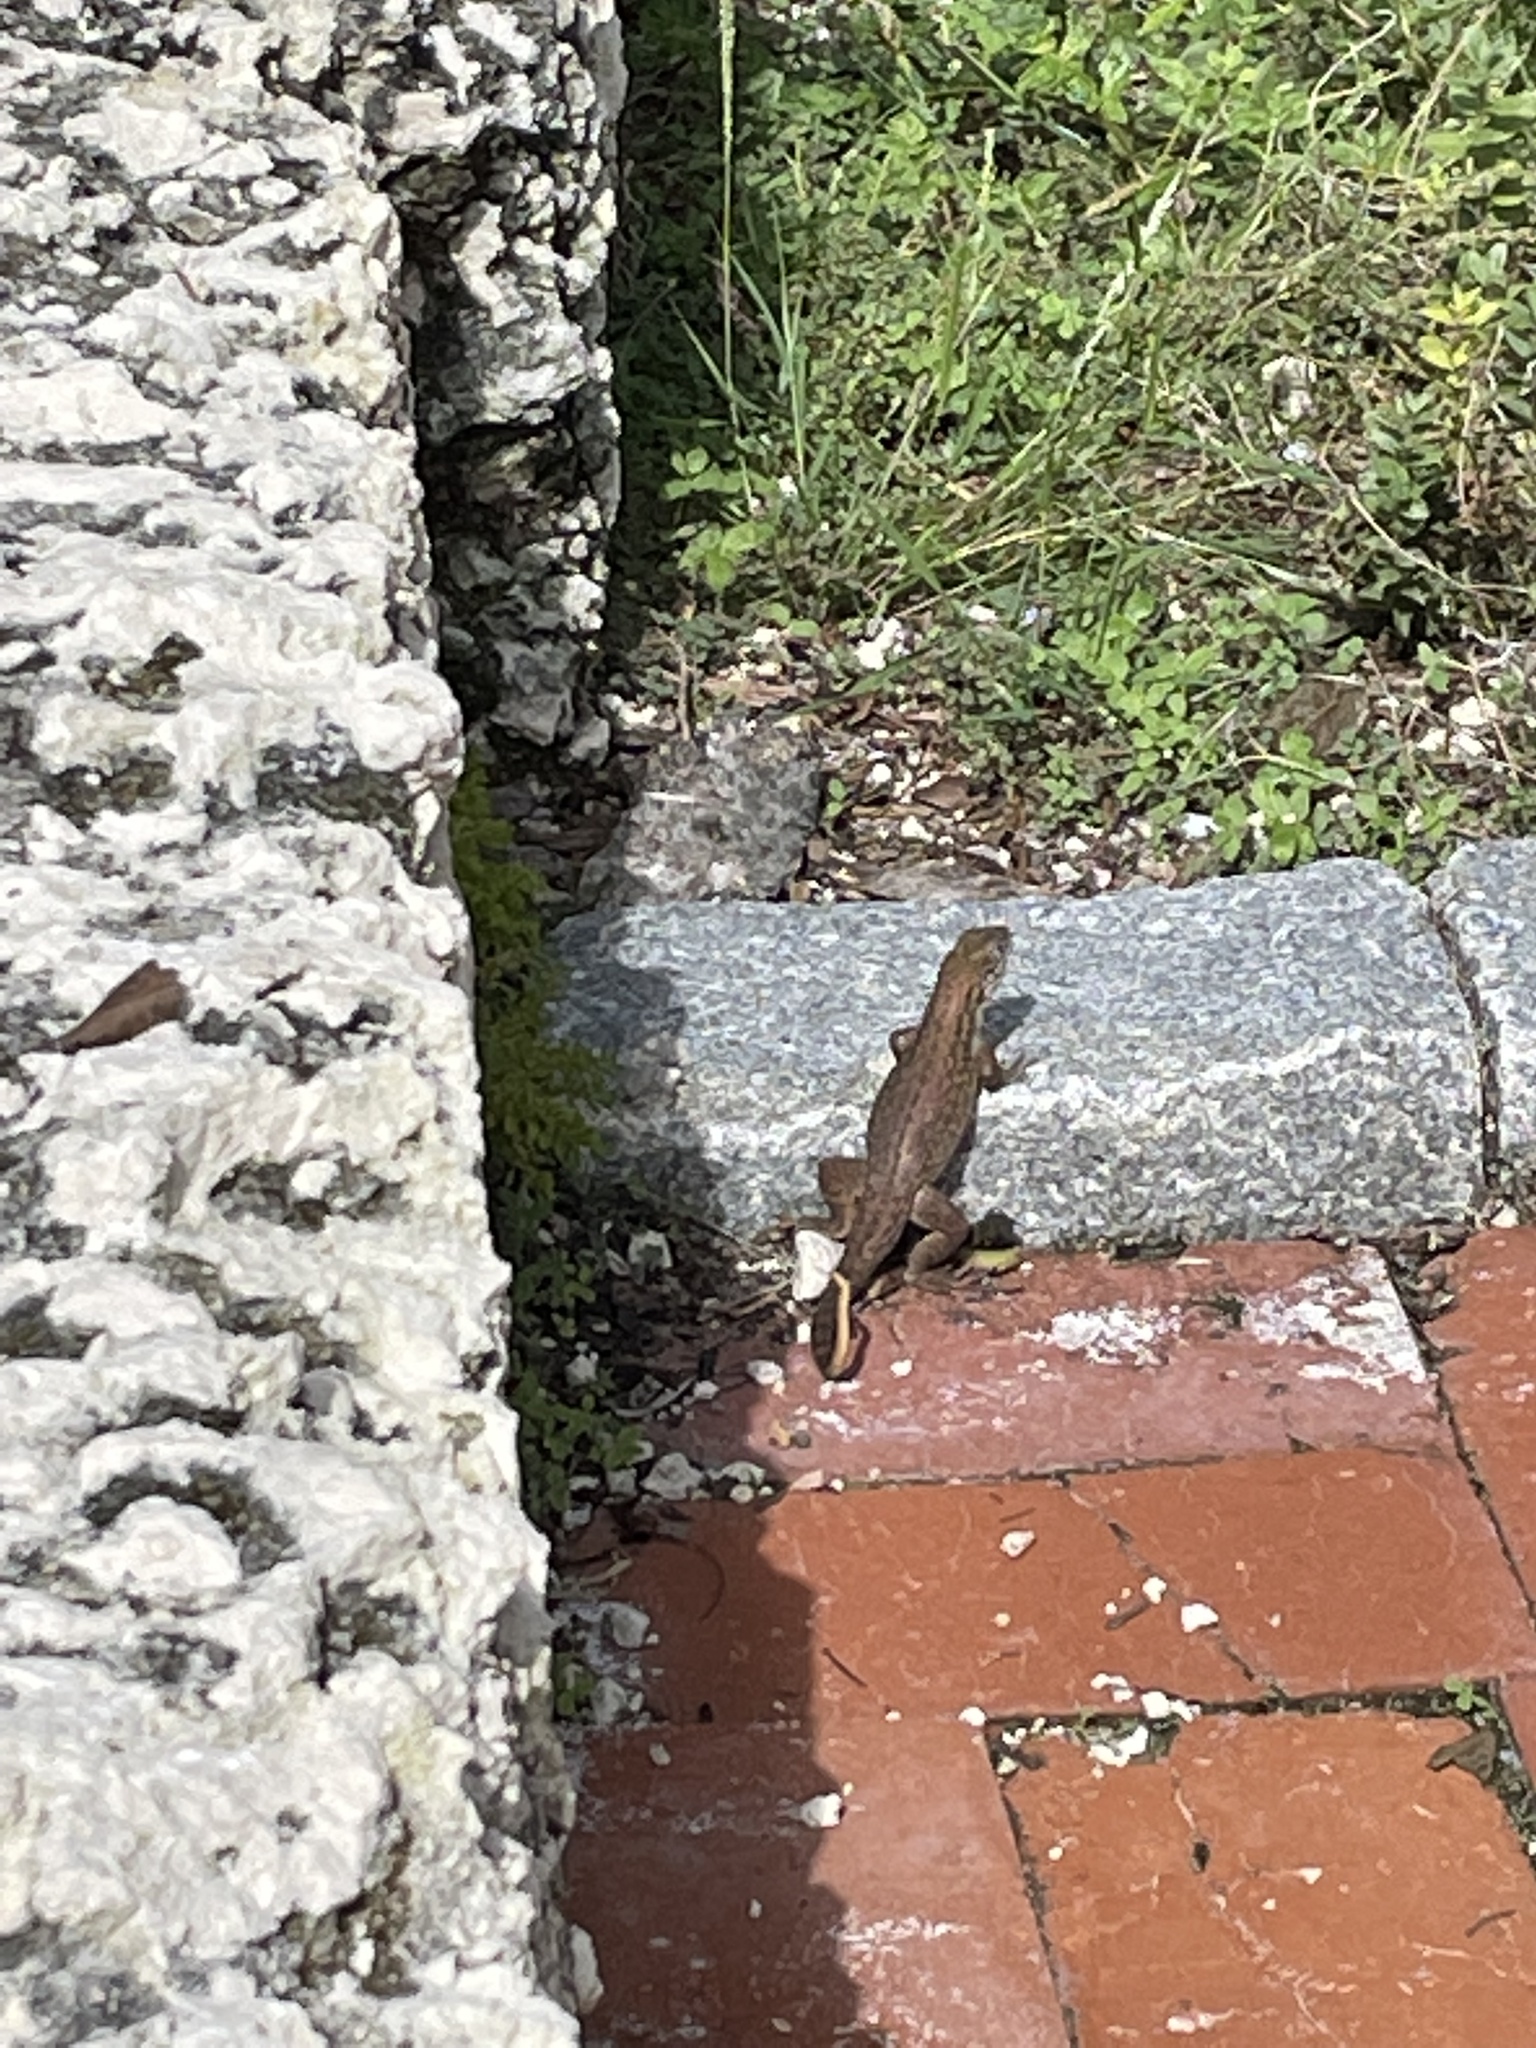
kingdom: Animalia
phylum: Chordata
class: Squamata
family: Leiocephalidae
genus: Leiocephalus
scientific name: Leiocephalus carinatus
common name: Northern curly-tailed lizard
